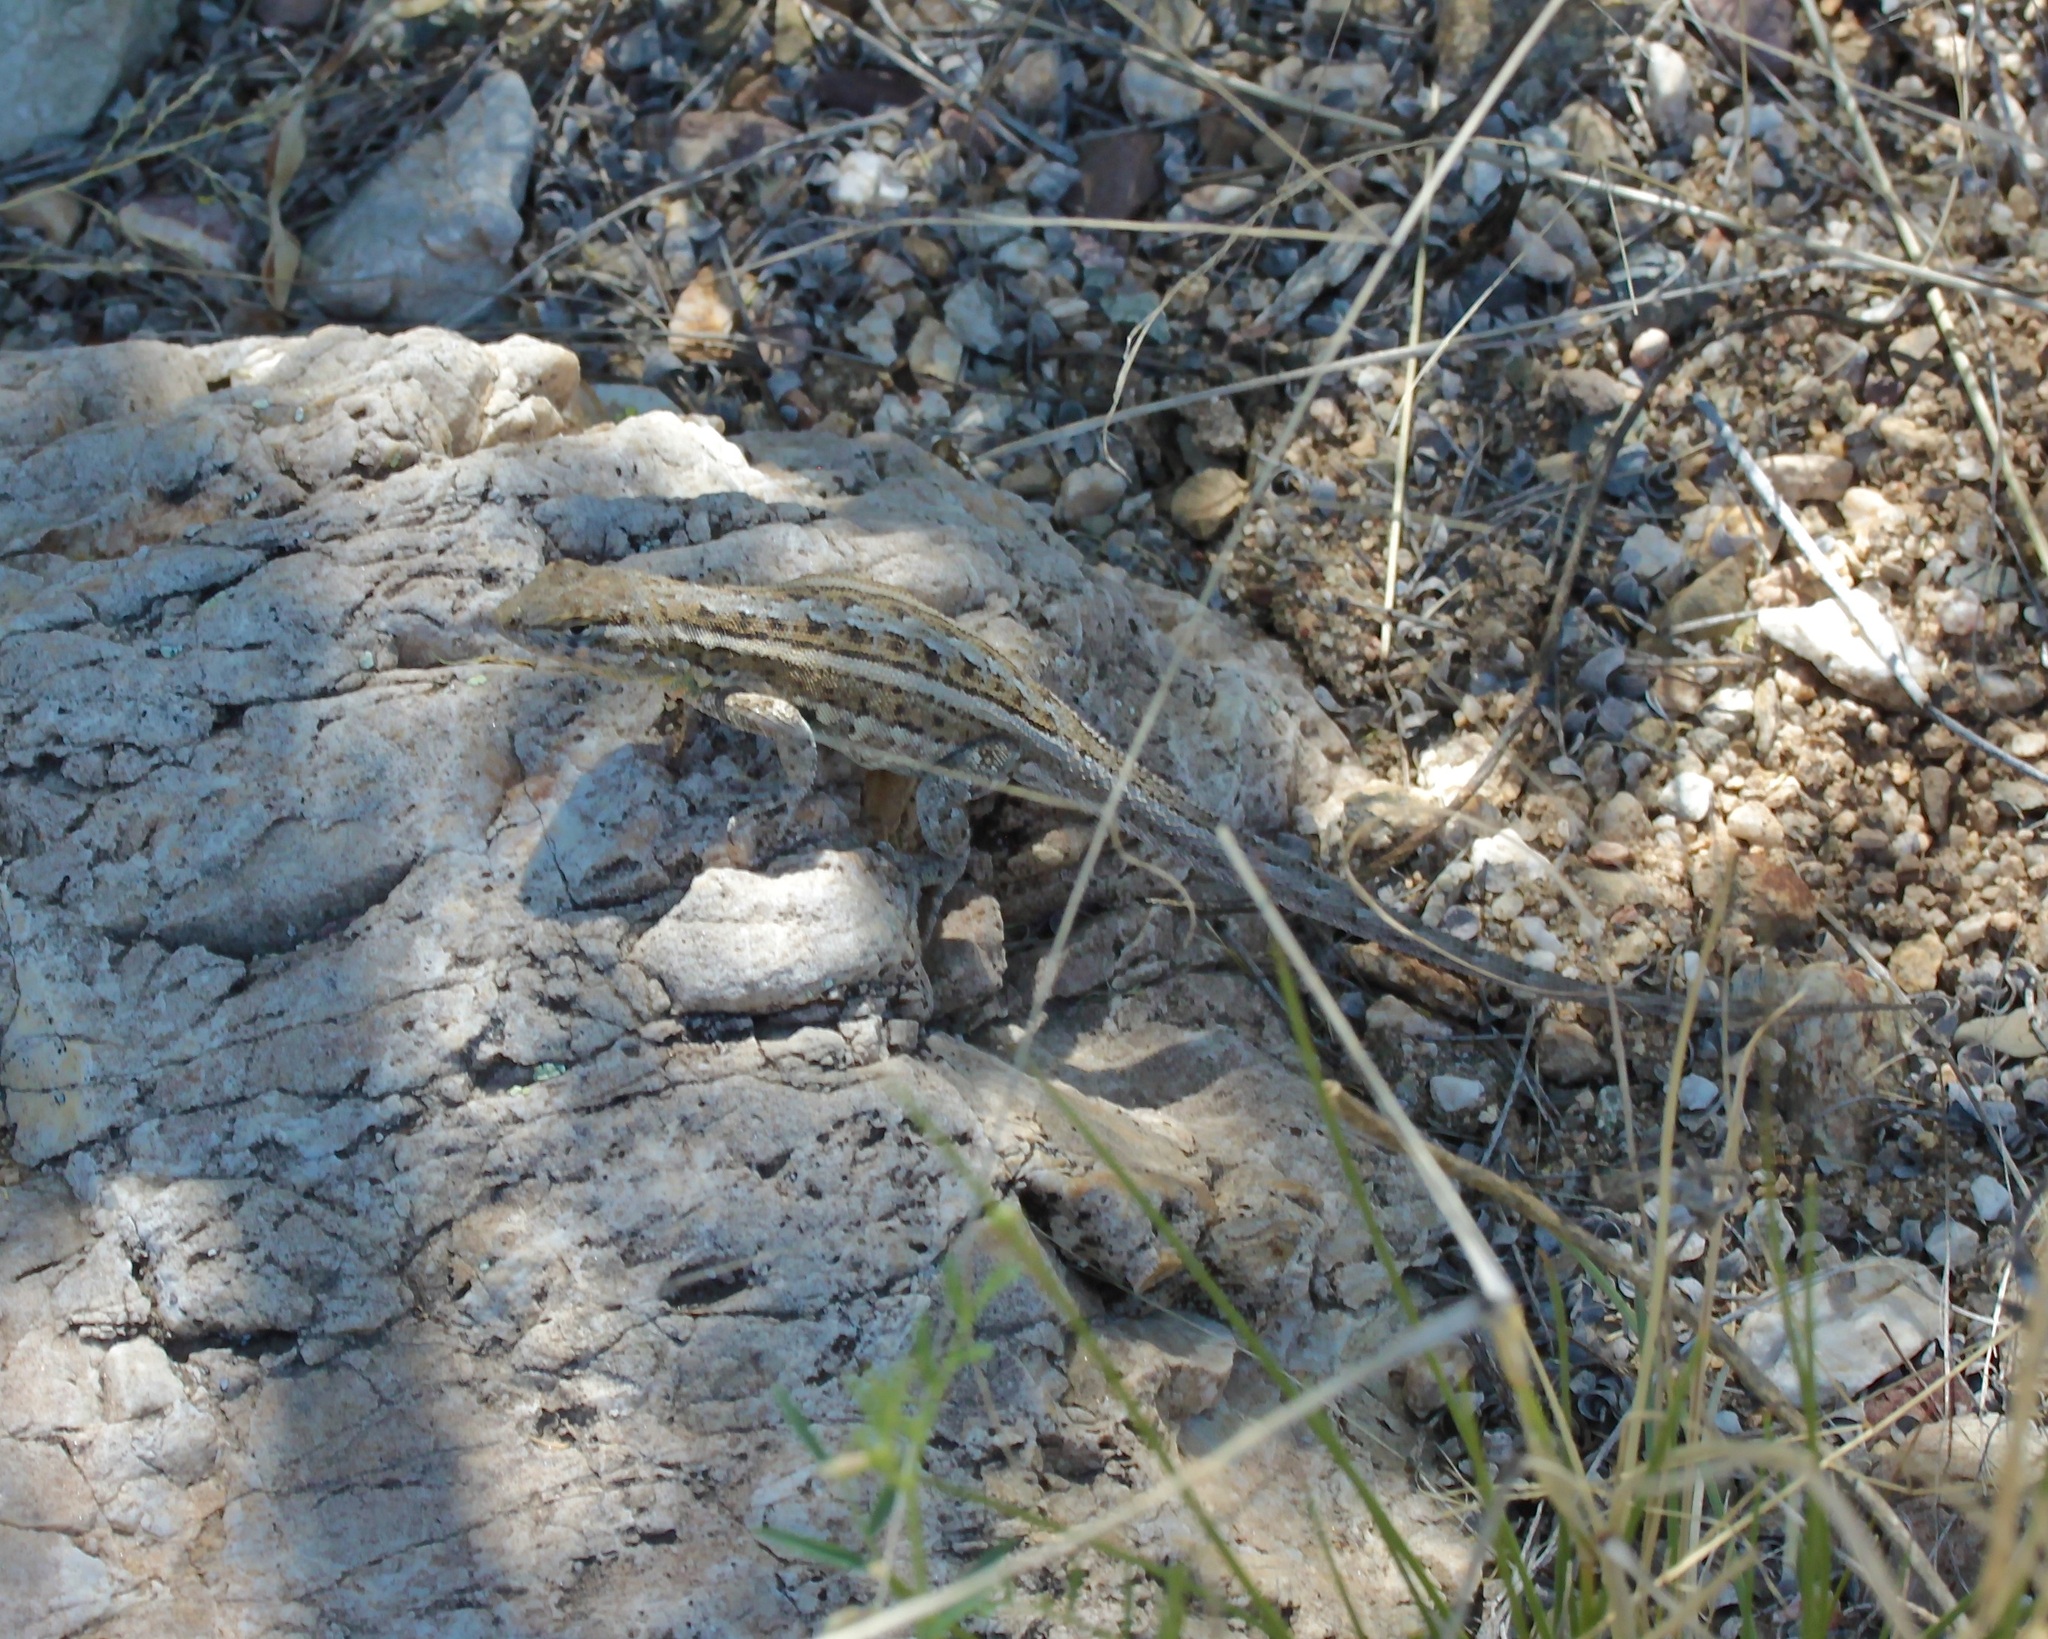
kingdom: Animalia
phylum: Chordata
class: Squamata
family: Phrynosomatidae
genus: Uta
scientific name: Uta stansburiana
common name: Side-blotched lizard
